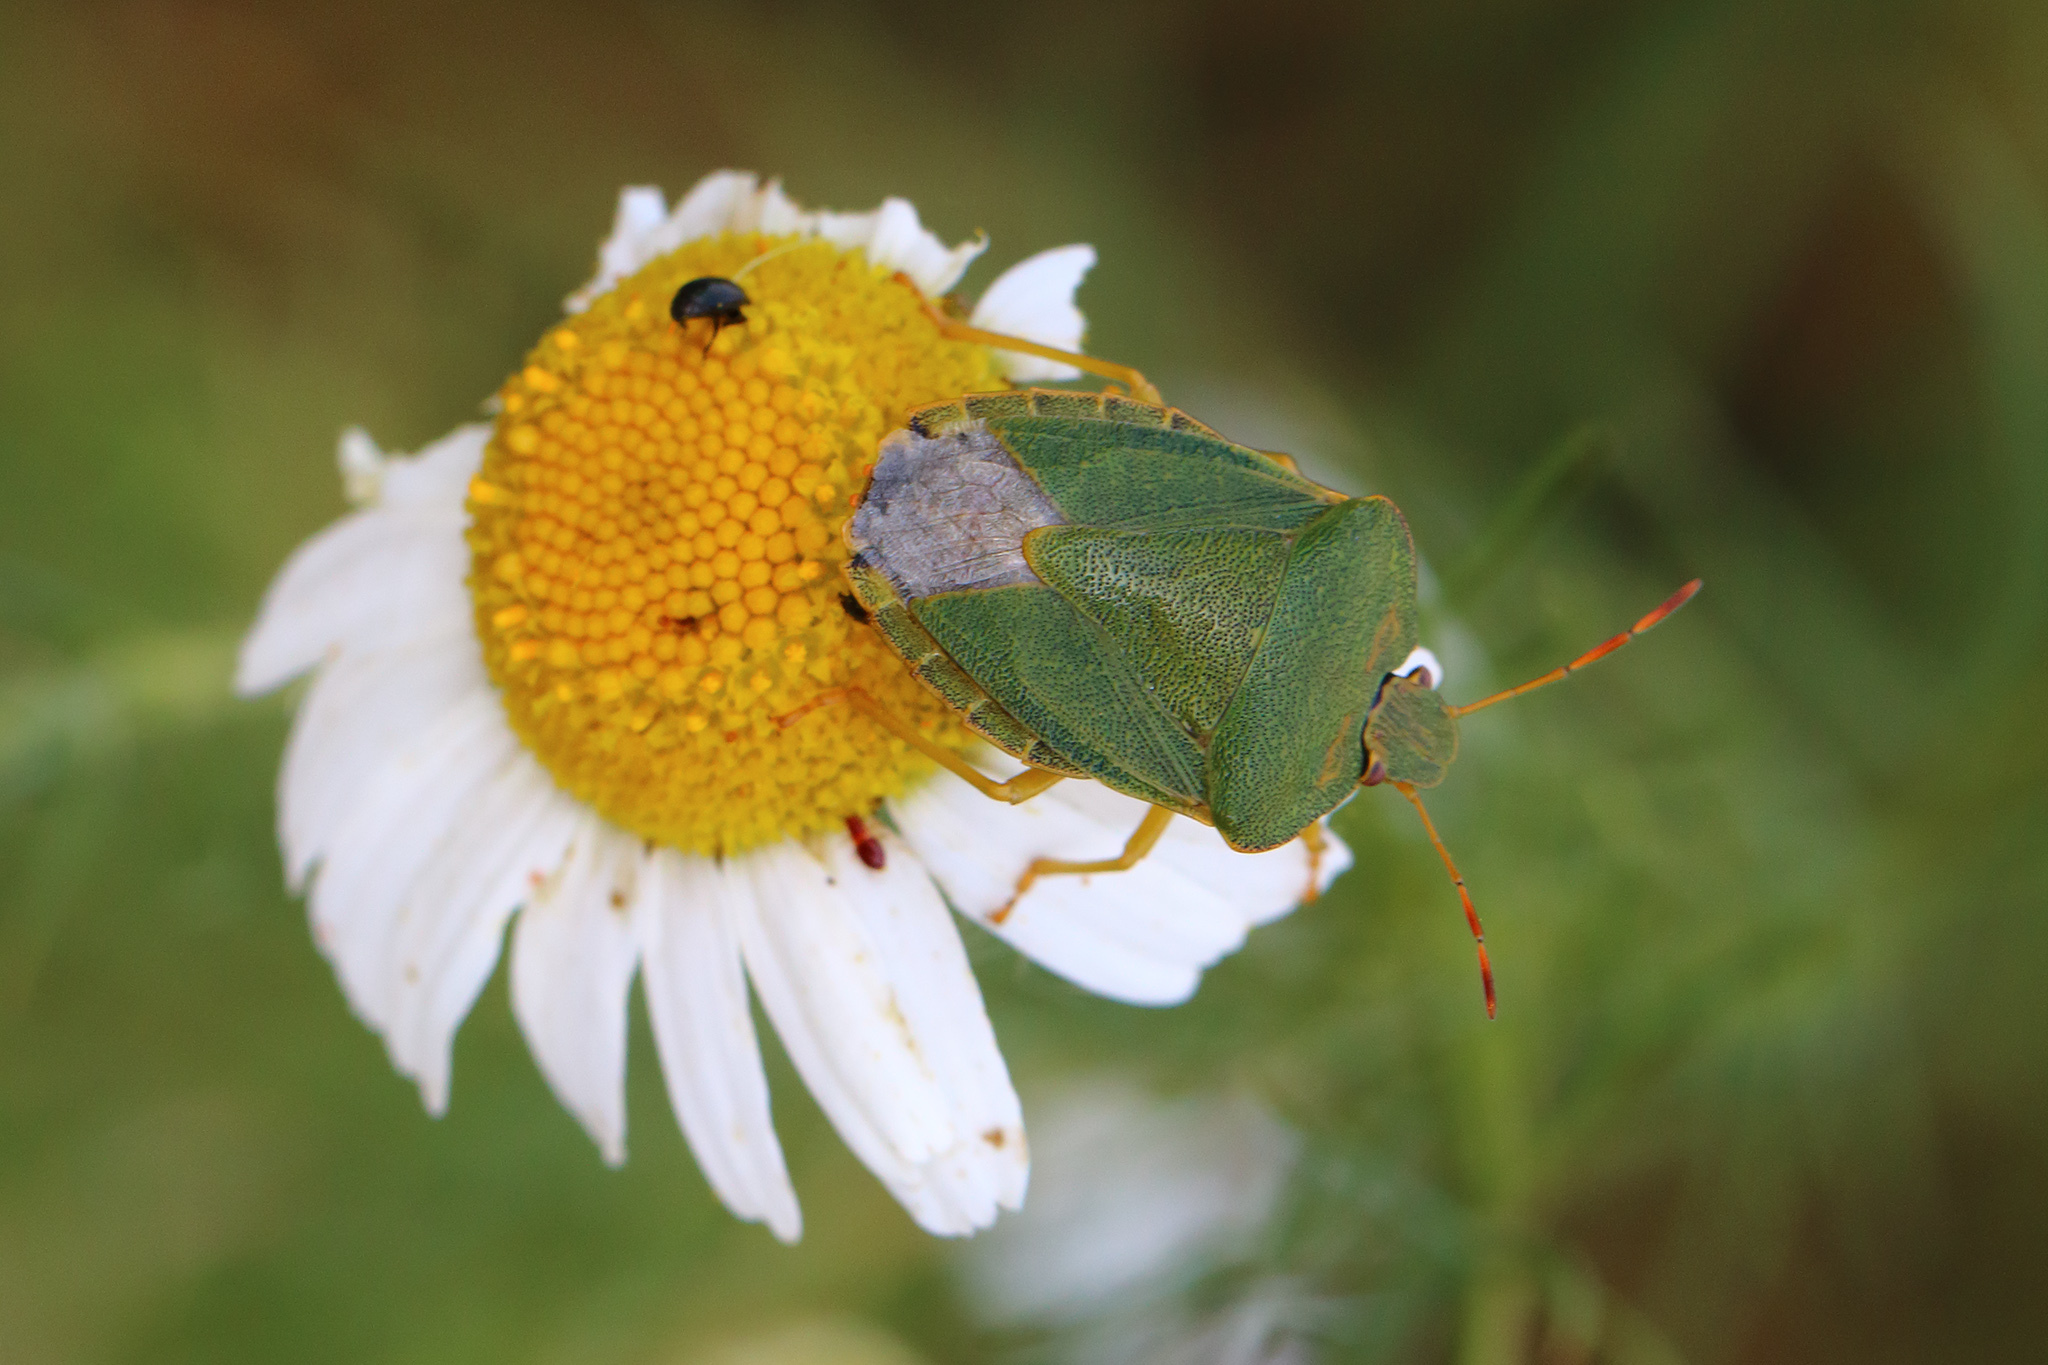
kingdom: Animalia
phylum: Arthropoda
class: Insecta
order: Hemiptera
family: Pentatomidae
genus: Palomena
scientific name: Palomena prasina
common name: Green shieldbug
